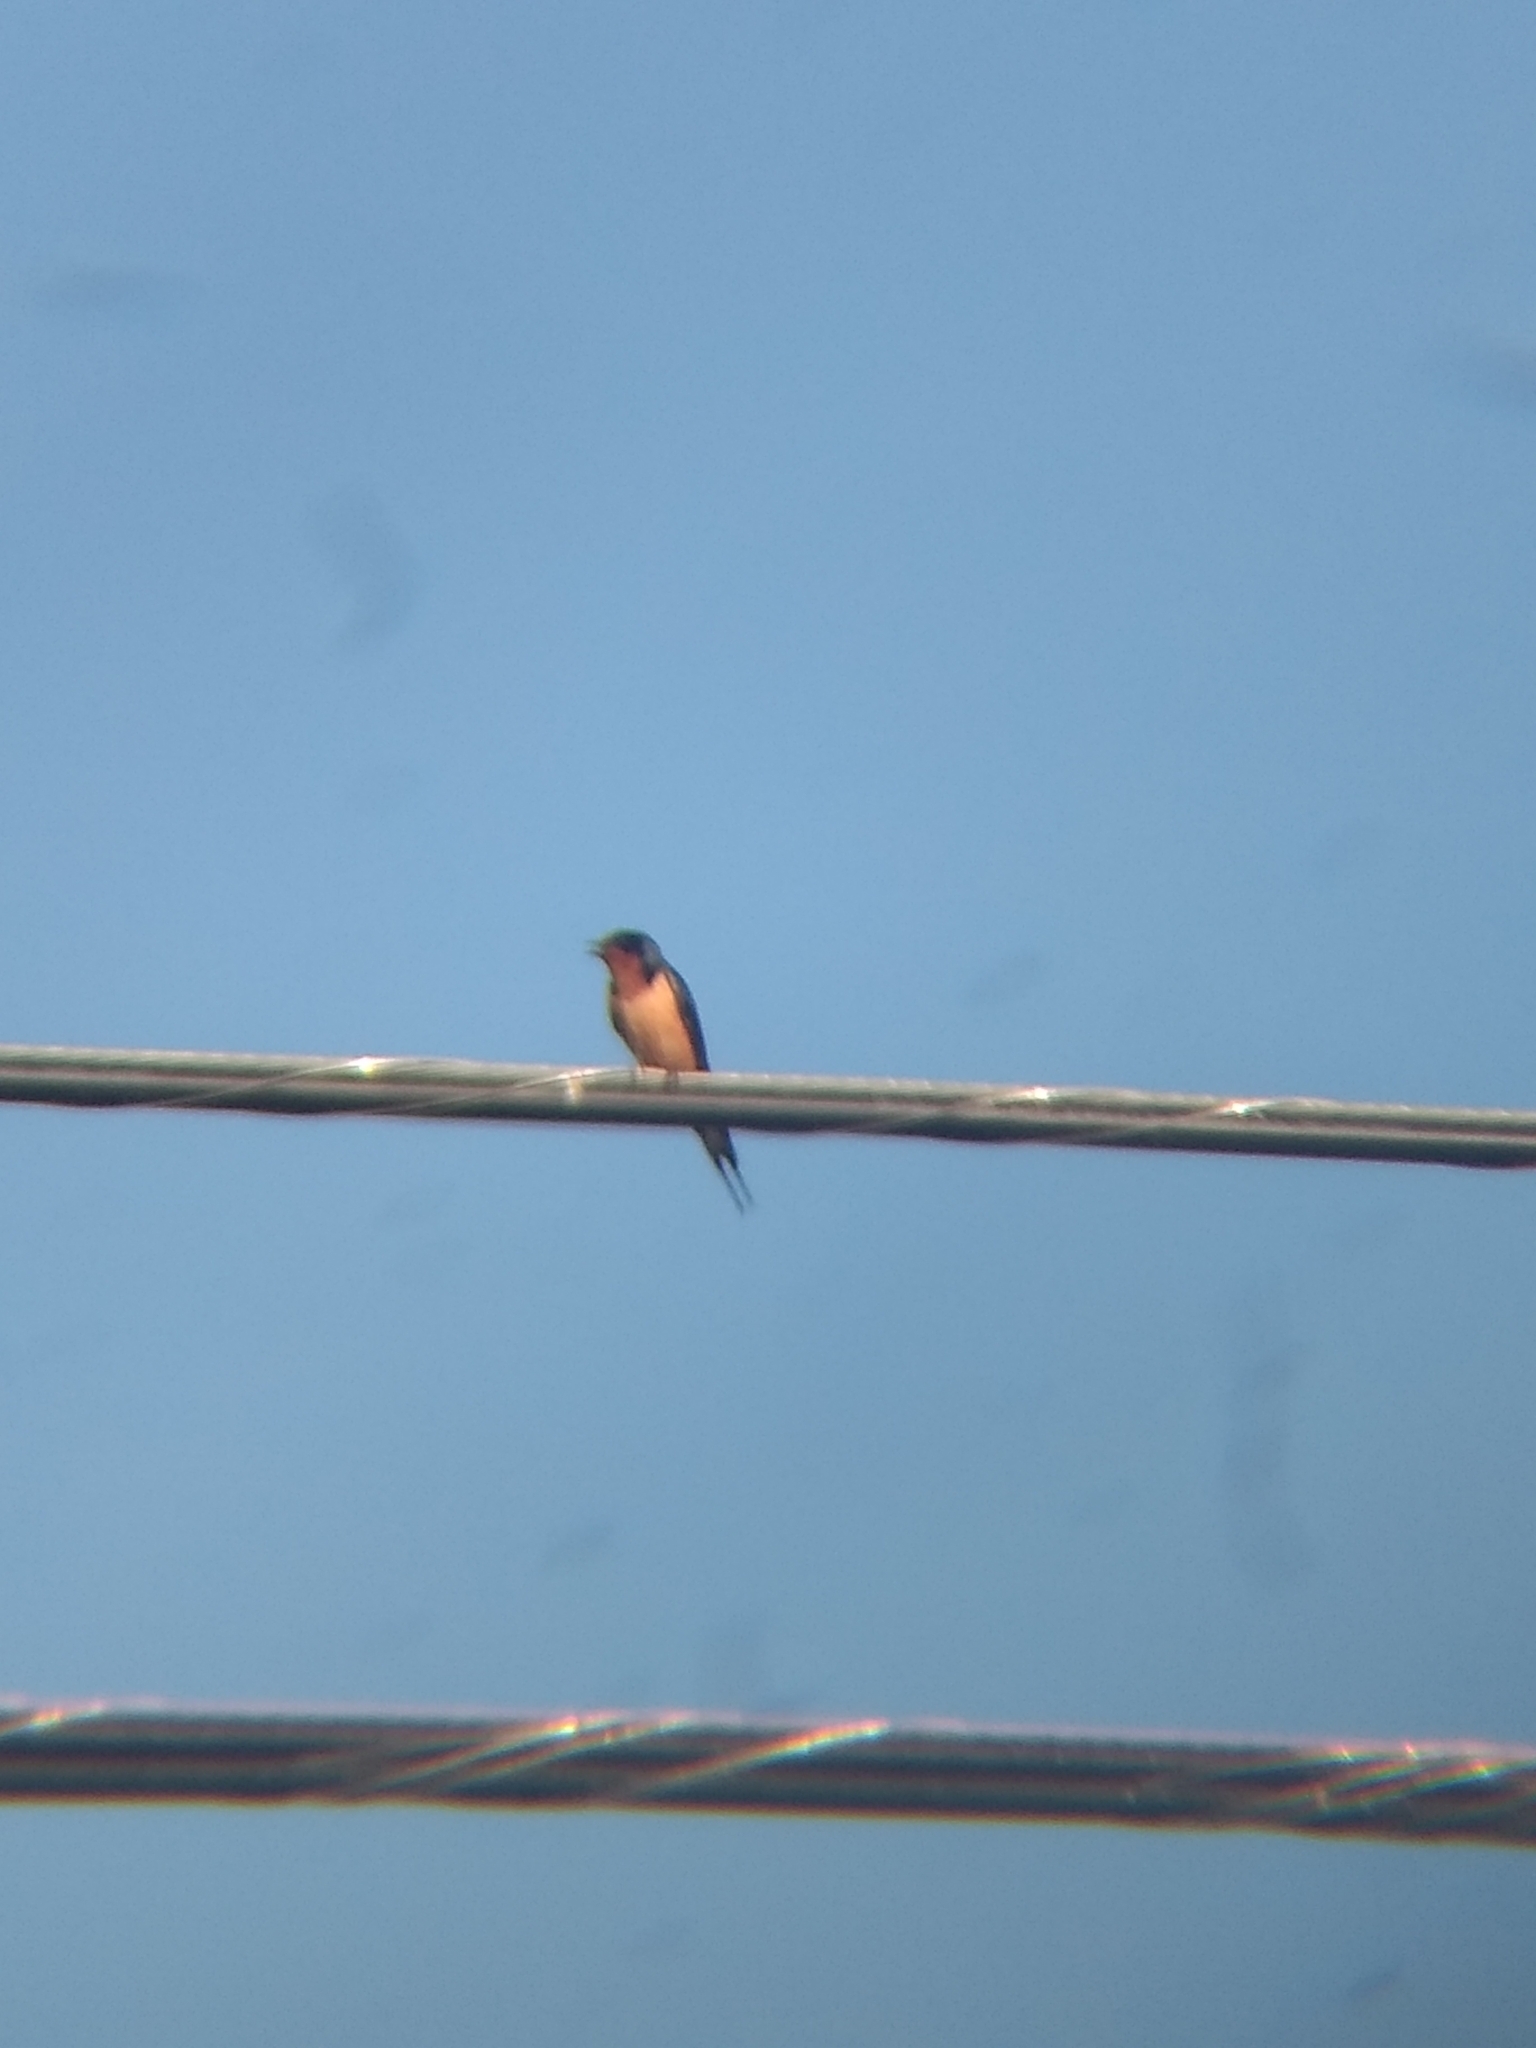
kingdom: Animalia
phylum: Chordata
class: Aves
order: Passeriformes
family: Hirundinidae
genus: Hirundo
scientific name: Hirundo rustica
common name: Barn swallow
